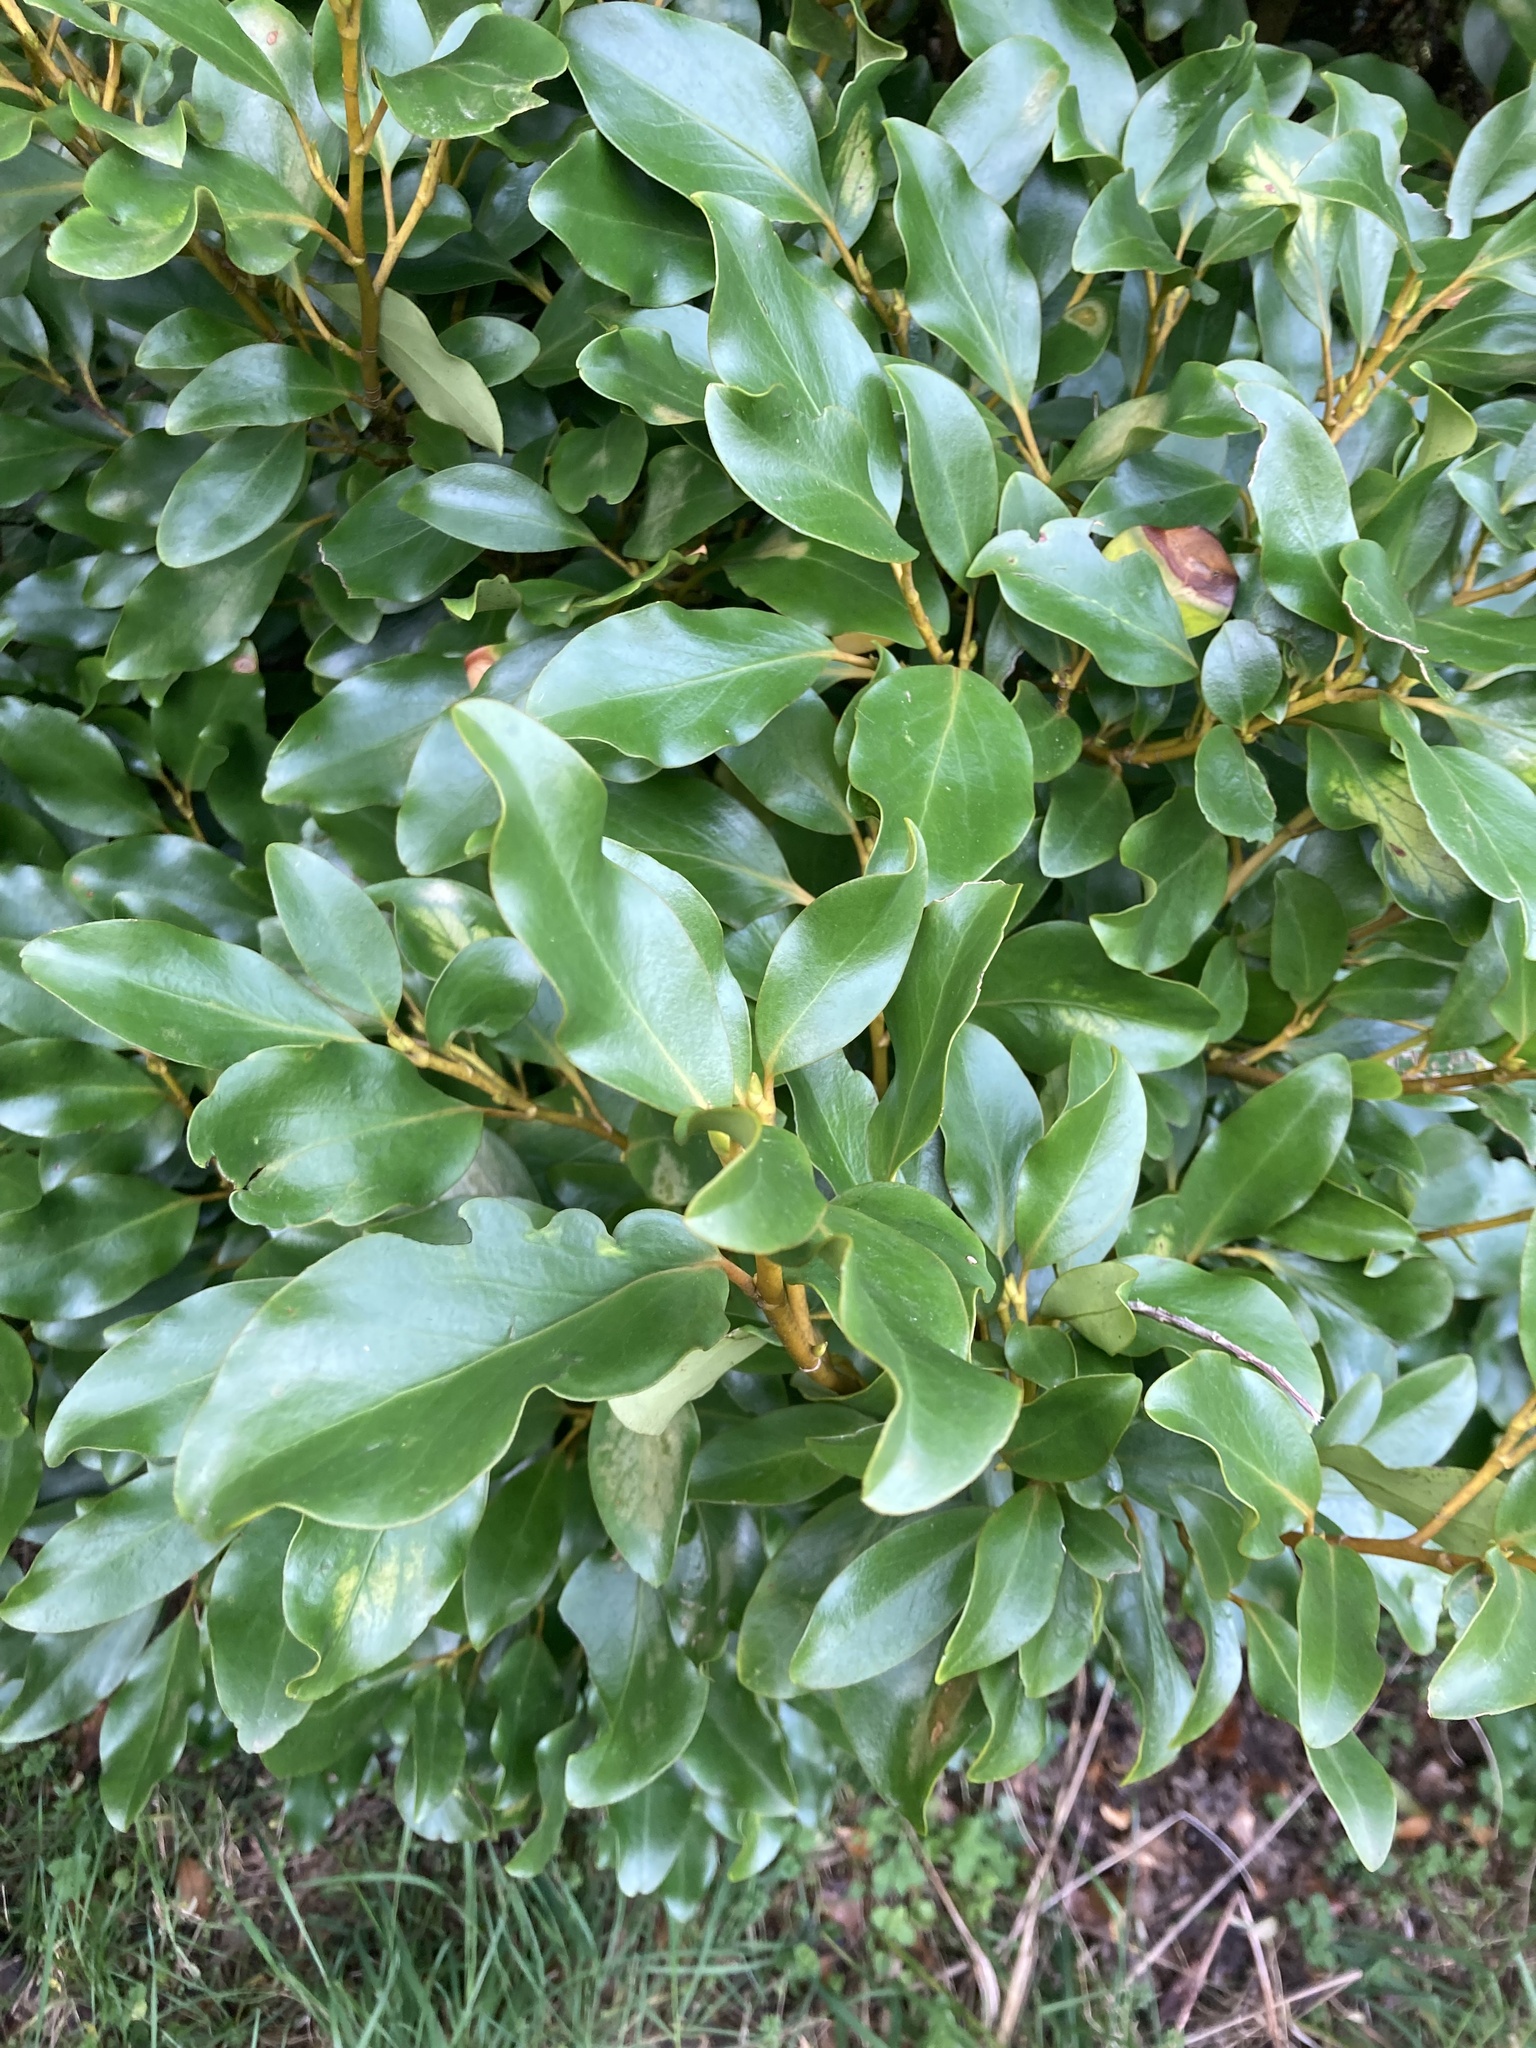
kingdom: Plantae
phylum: Tracheophyta
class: Magnoliopsida
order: Apiales
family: Griseliniaceae
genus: Griselinia
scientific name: Griselinia littoralis
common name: New zealand broadleaf
